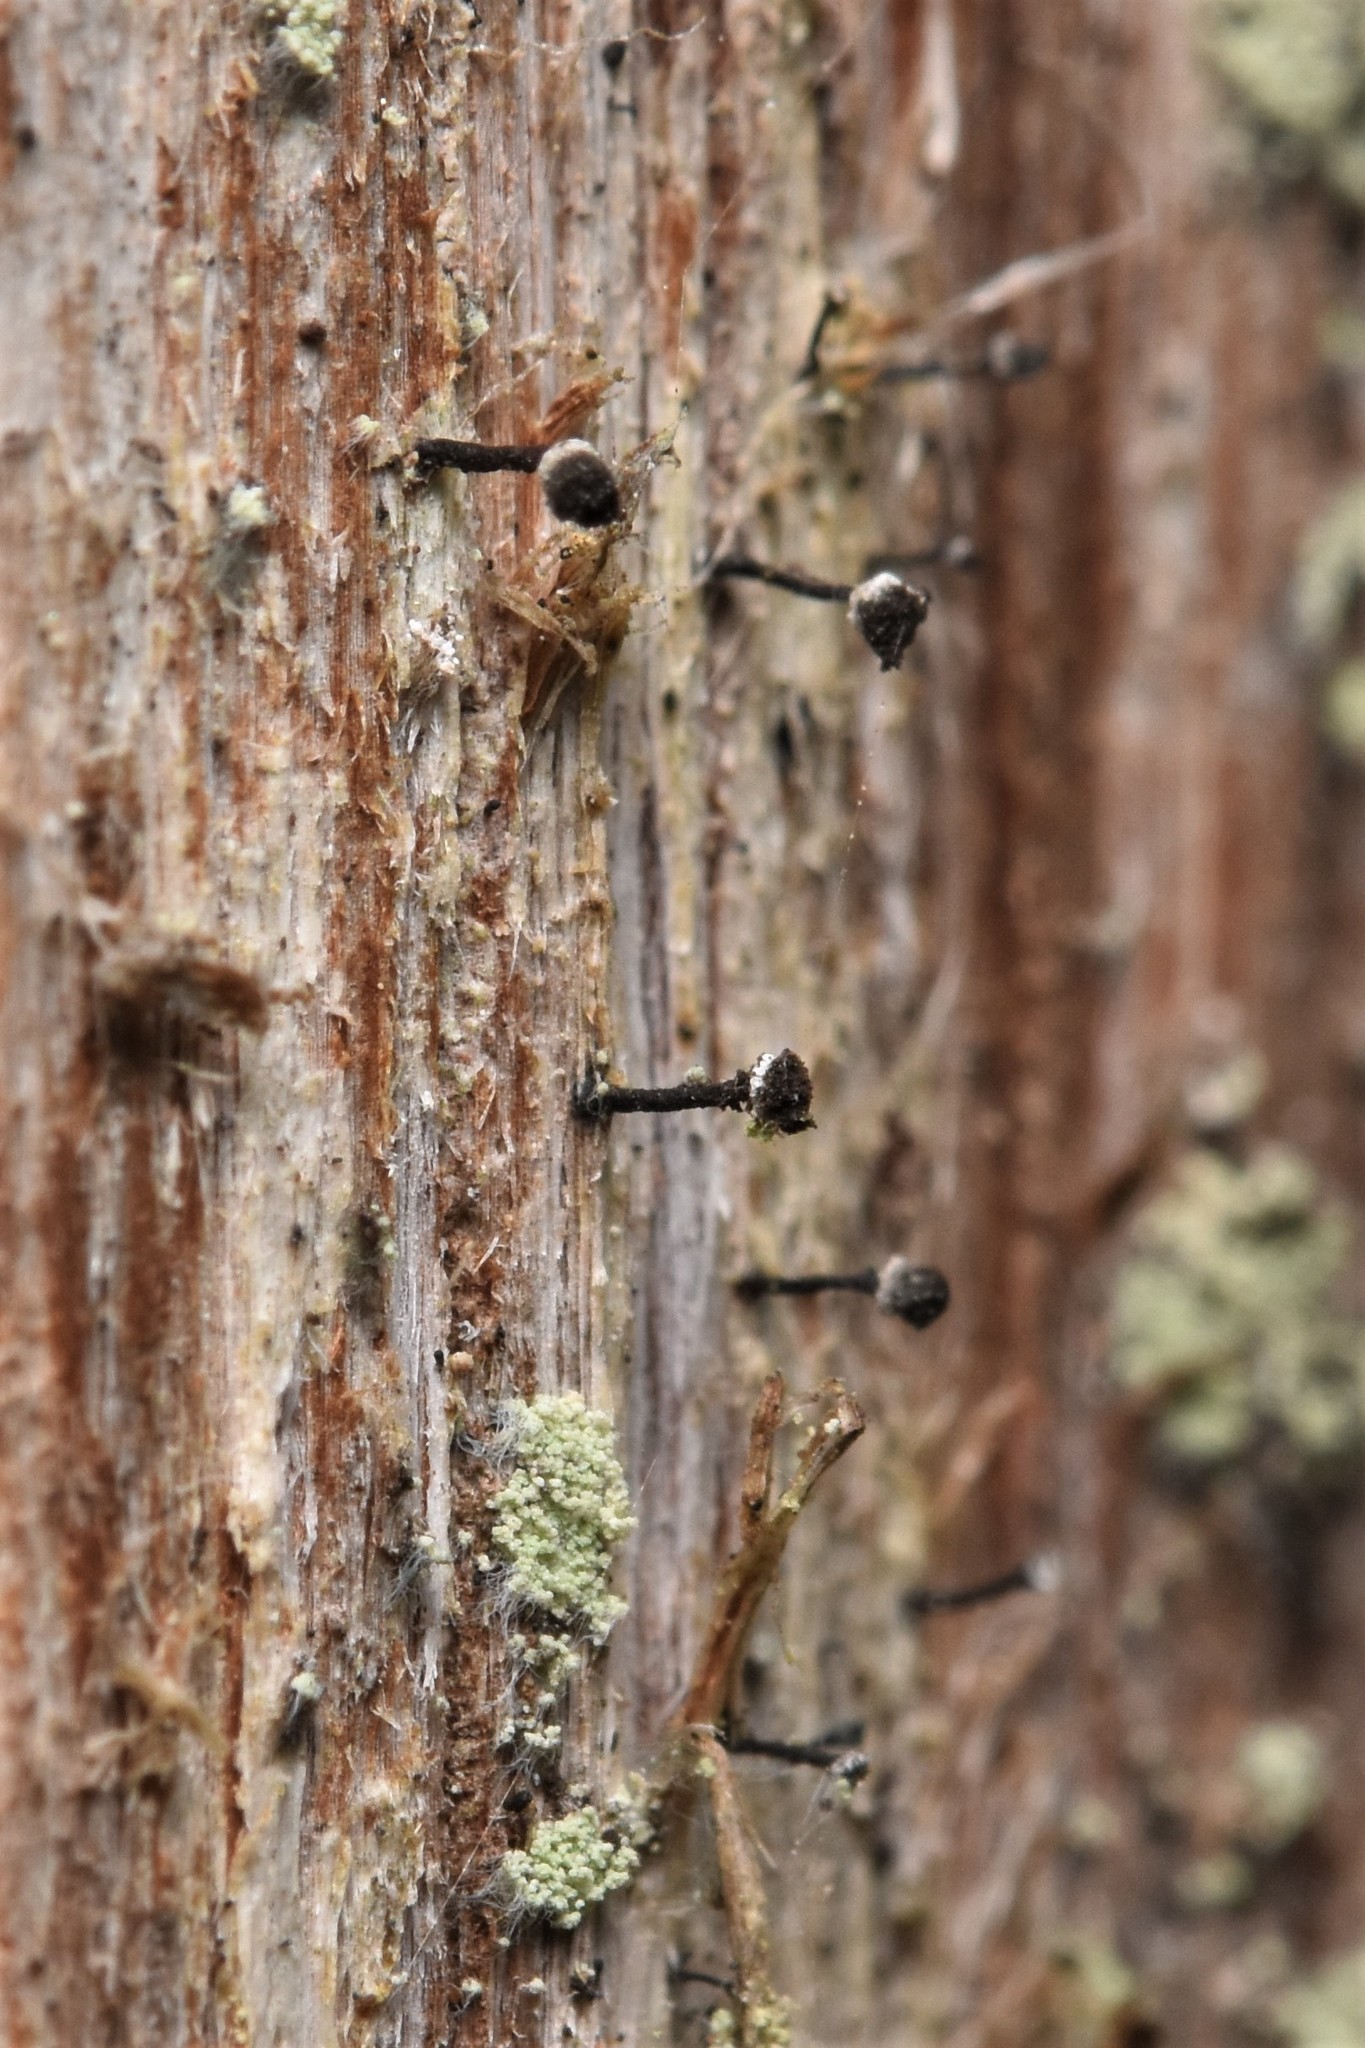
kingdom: Fungi
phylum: Ascomycota
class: Lecanoromycetes
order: Caliciales
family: Caliciaceae
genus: Calicium
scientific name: Calicium glaucellum
